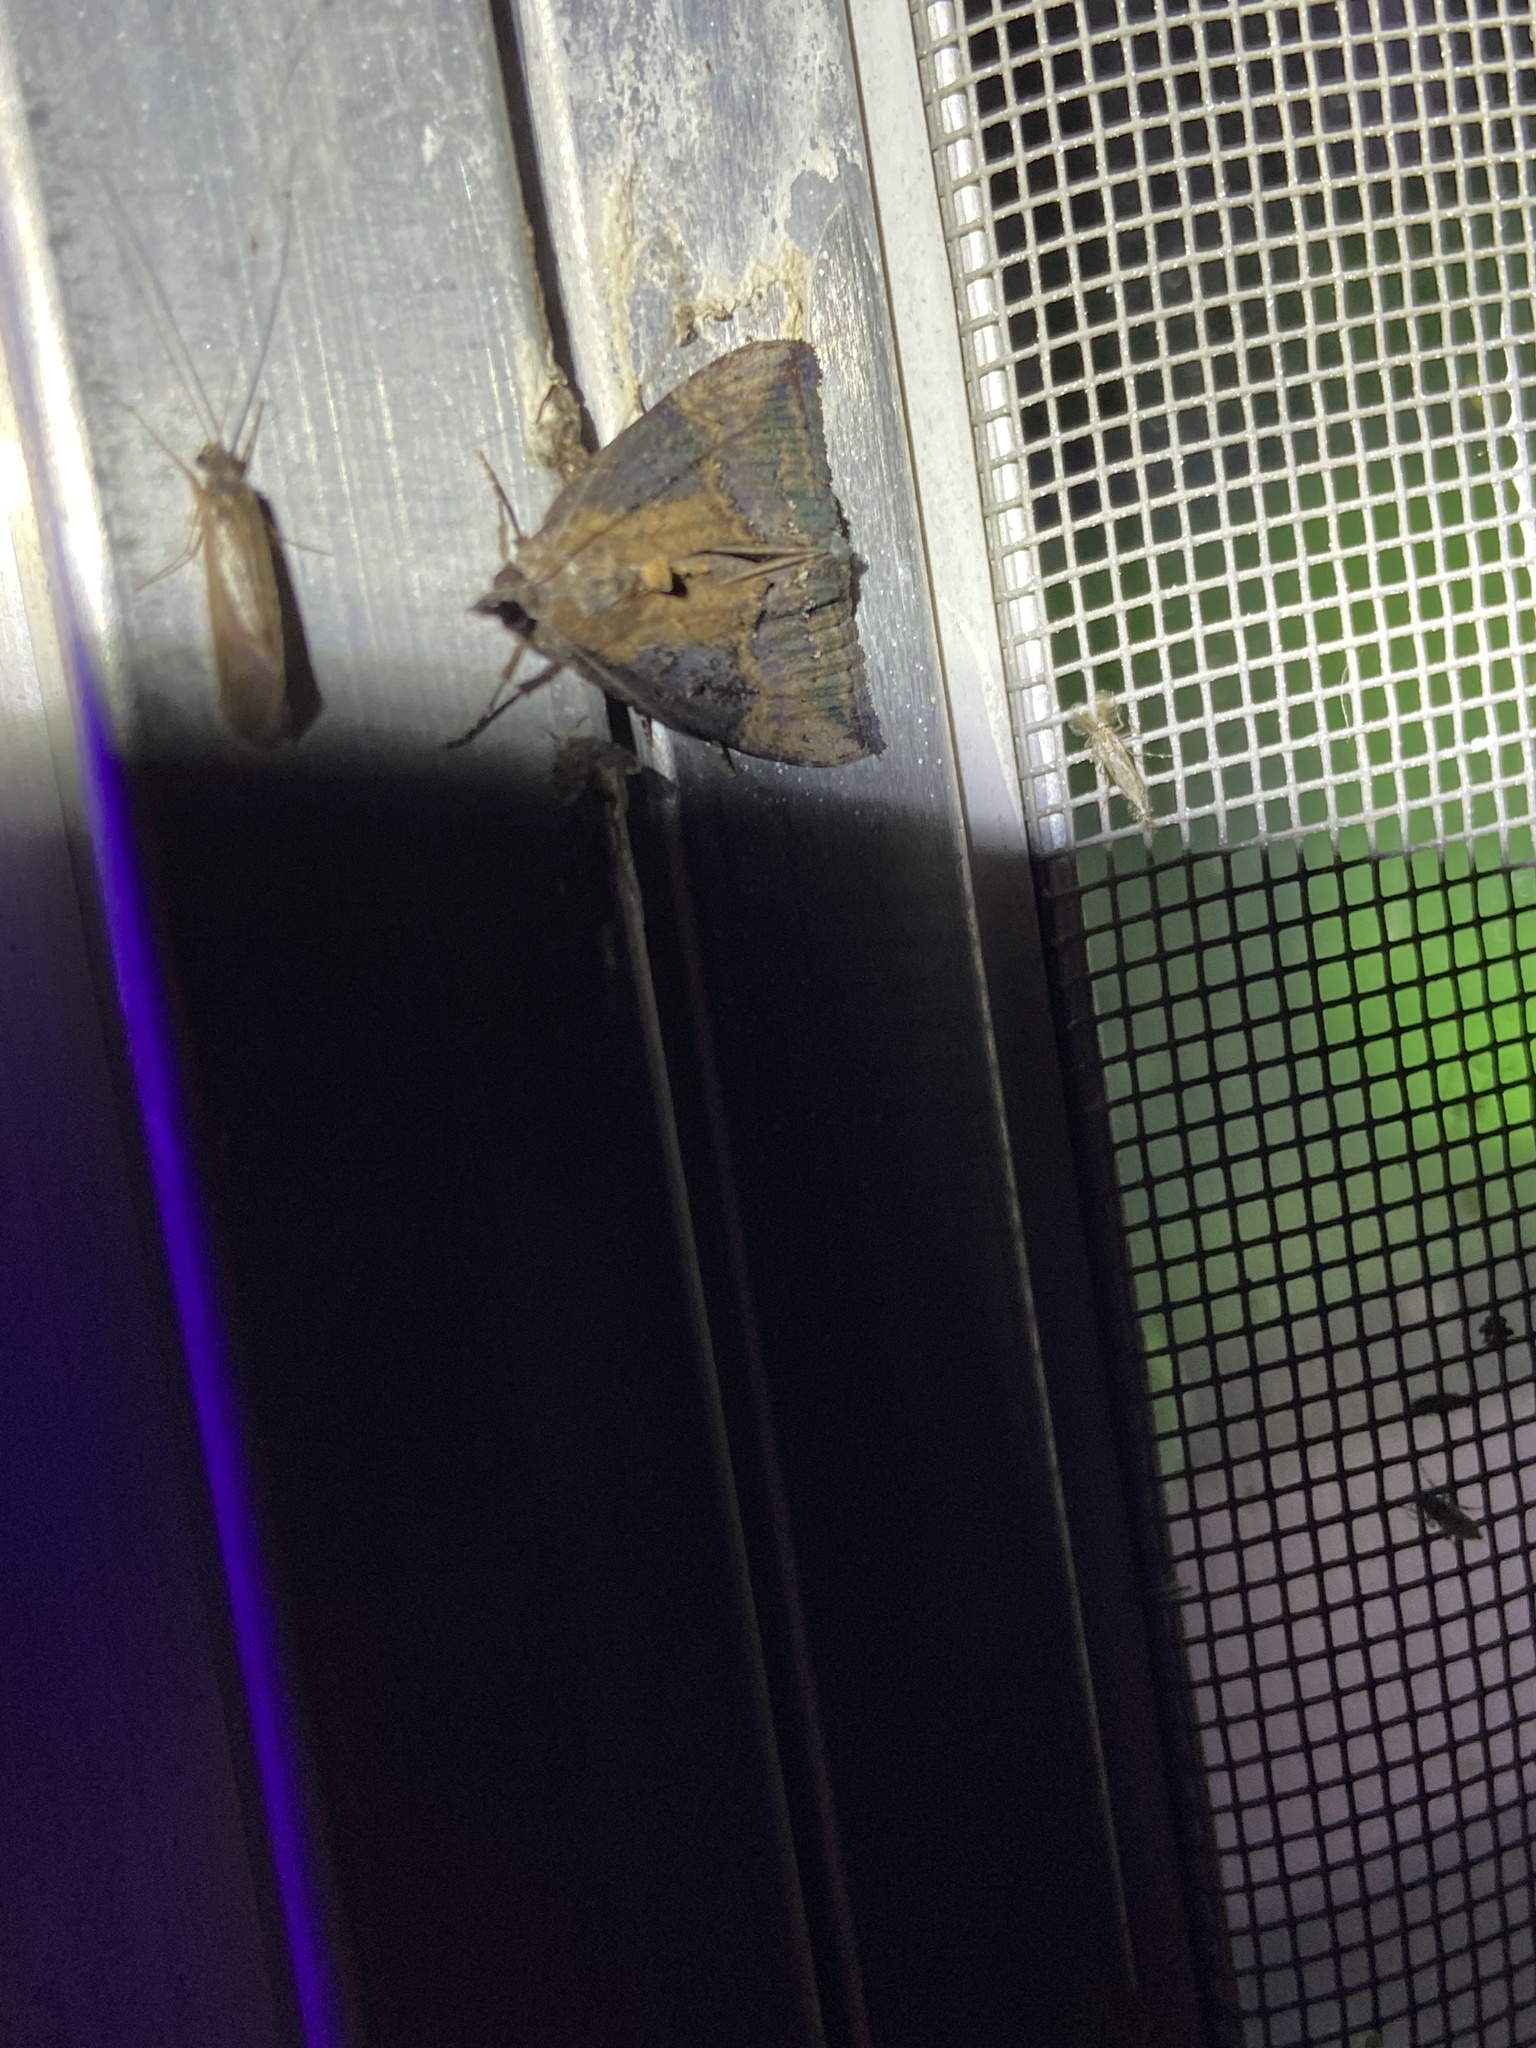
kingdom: Animalia
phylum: Arthropoda
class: Insecta
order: Lepidoptera
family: Erebidae
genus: Hypena
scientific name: Hypena scabra
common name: Green cloverworm
